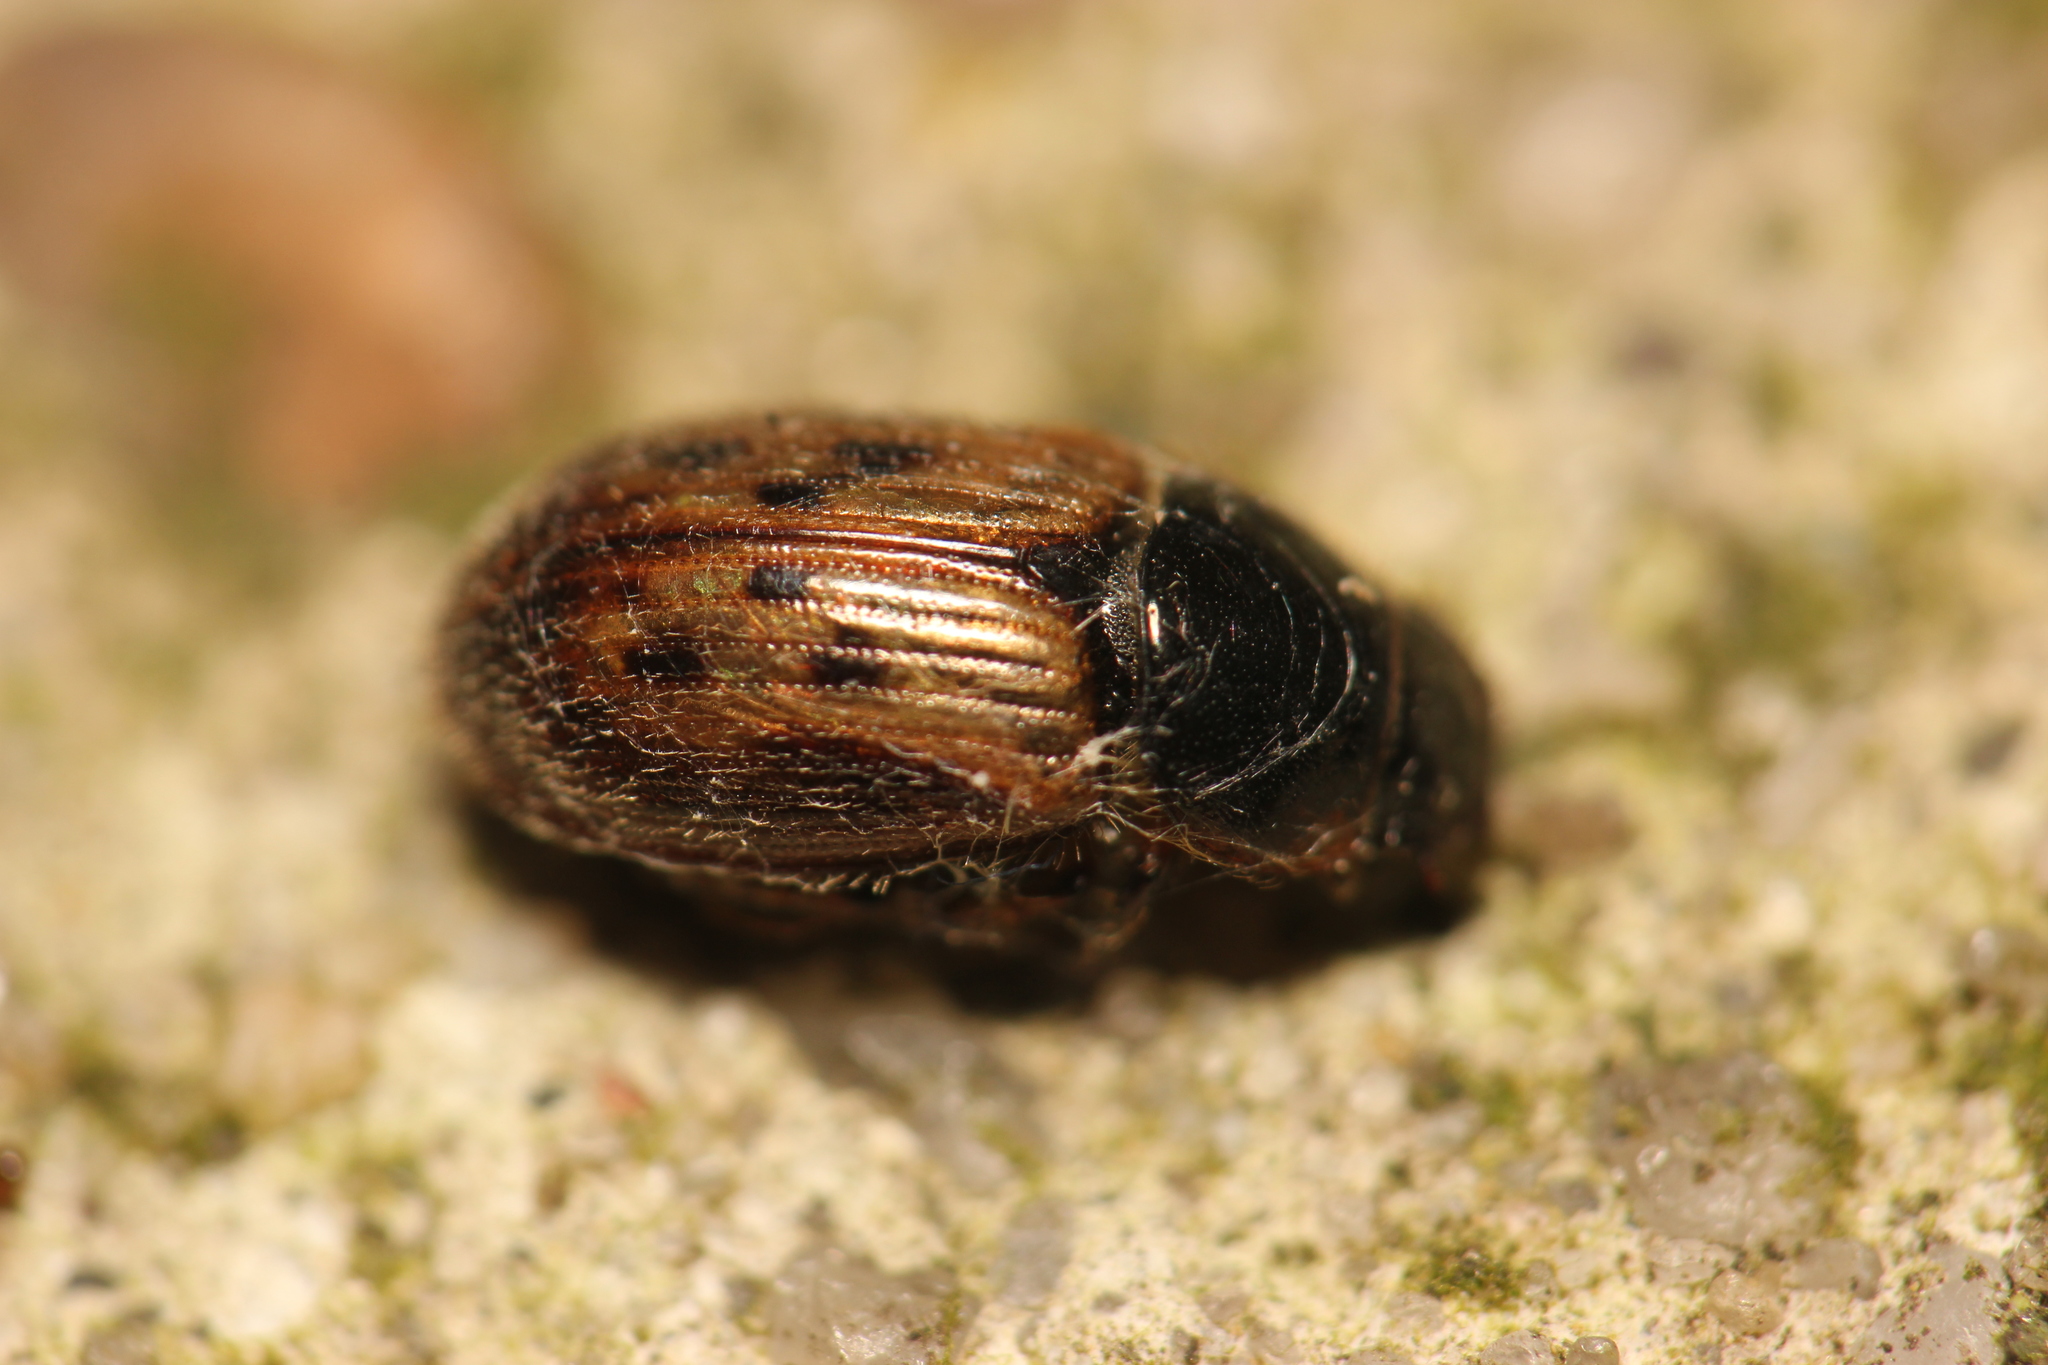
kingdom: Animalia
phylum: Arthropoda
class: Insecta
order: Coleoptera
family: Scarabaeidae
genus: Nimbus
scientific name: Nimbus contaminatus
